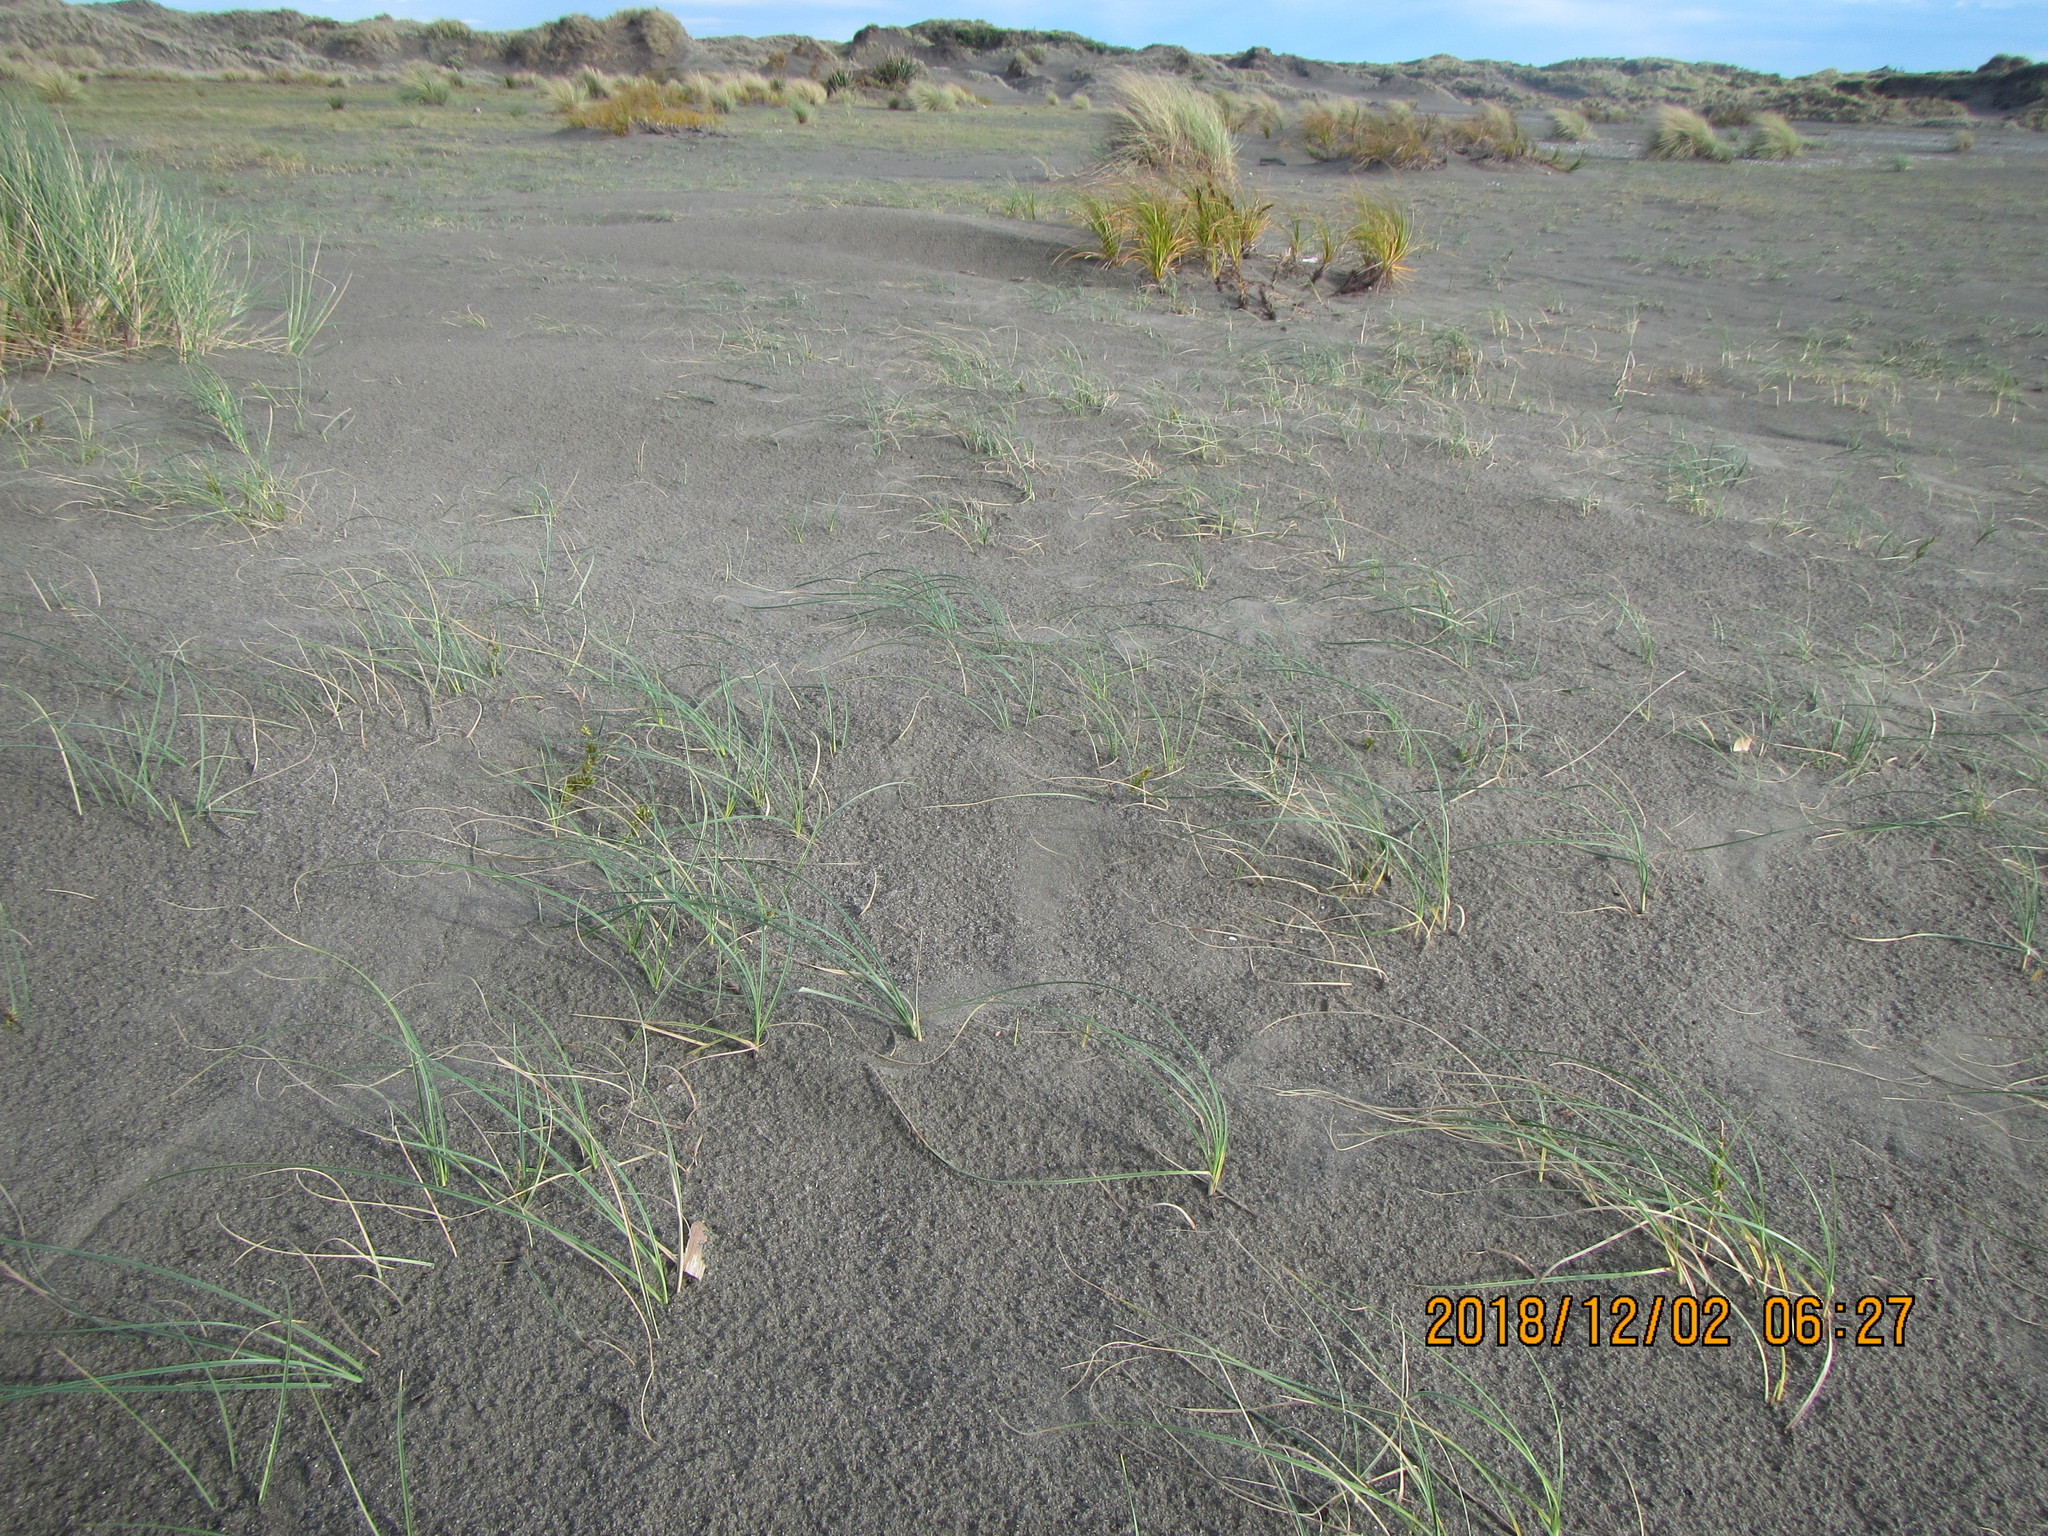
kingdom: Plantae
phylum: Tracheophyta
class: Liliopsida
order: Poales
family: Cyperaceae
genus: Carex
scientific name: Carex pumila
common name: Dwarf sedge
